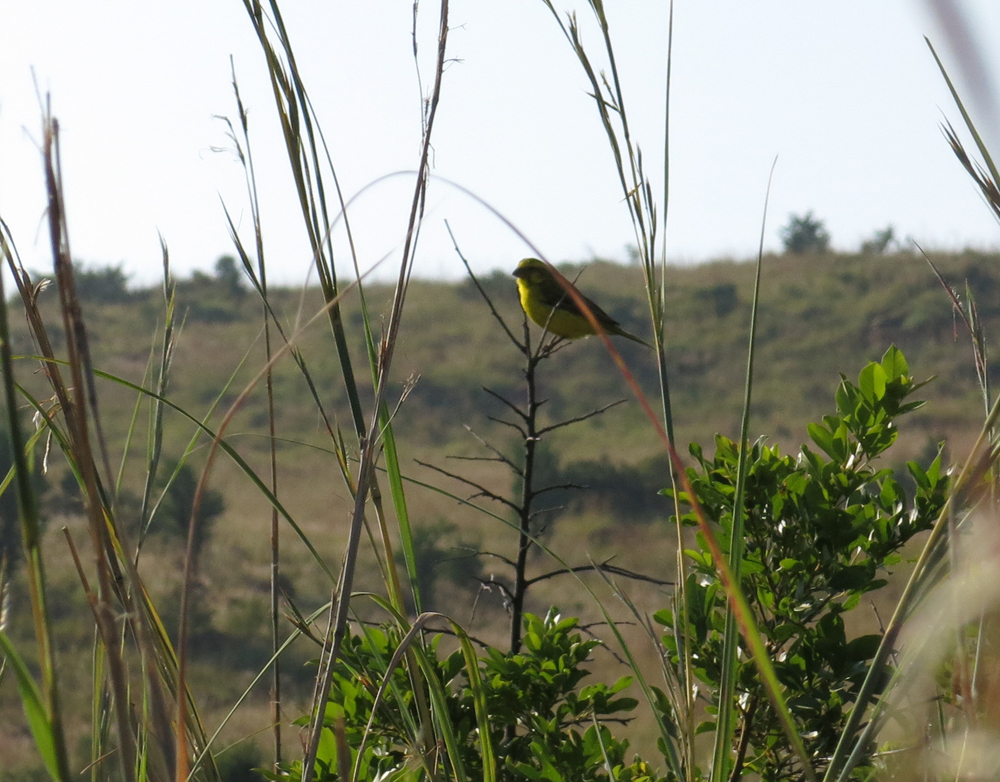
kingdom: Animalia
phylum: Chordata
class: Aves
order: Passeriformes
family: Fringillidae
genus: Crithagra
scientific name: Crithagra flaviventris
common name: Yellow canary
